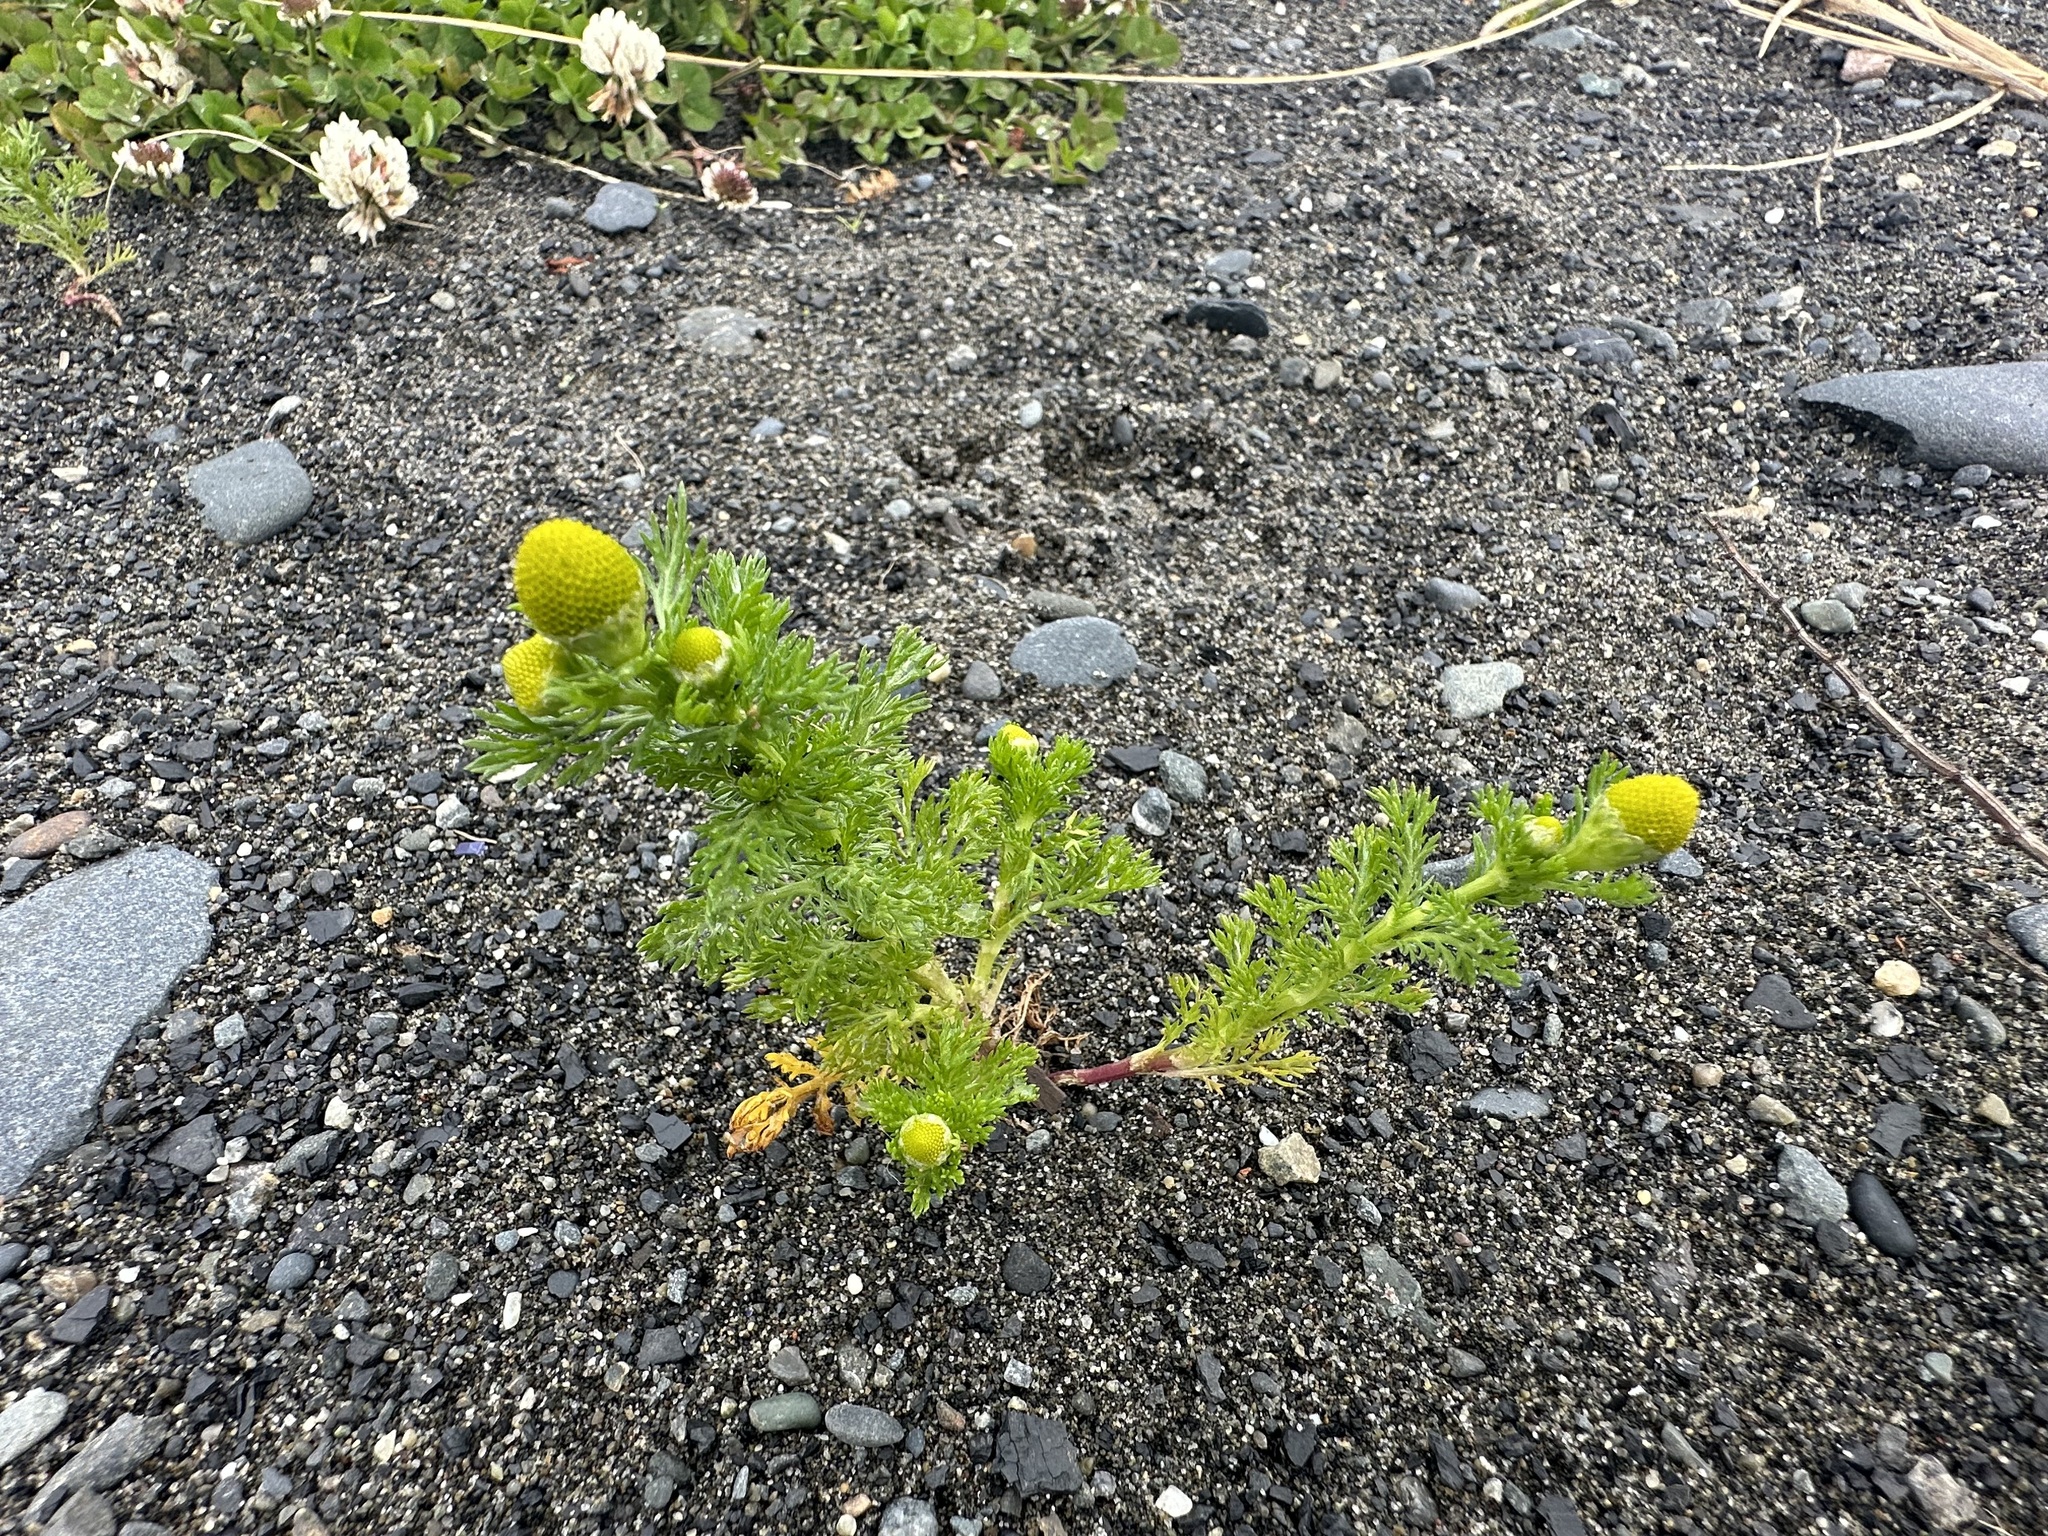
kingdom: Plantae
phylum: Tracheophyta
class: Magnoliopsida
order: Asterales
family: Asteraceae
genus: Matricaria
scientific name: Matricaria discoidea
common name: Disc mayweed
